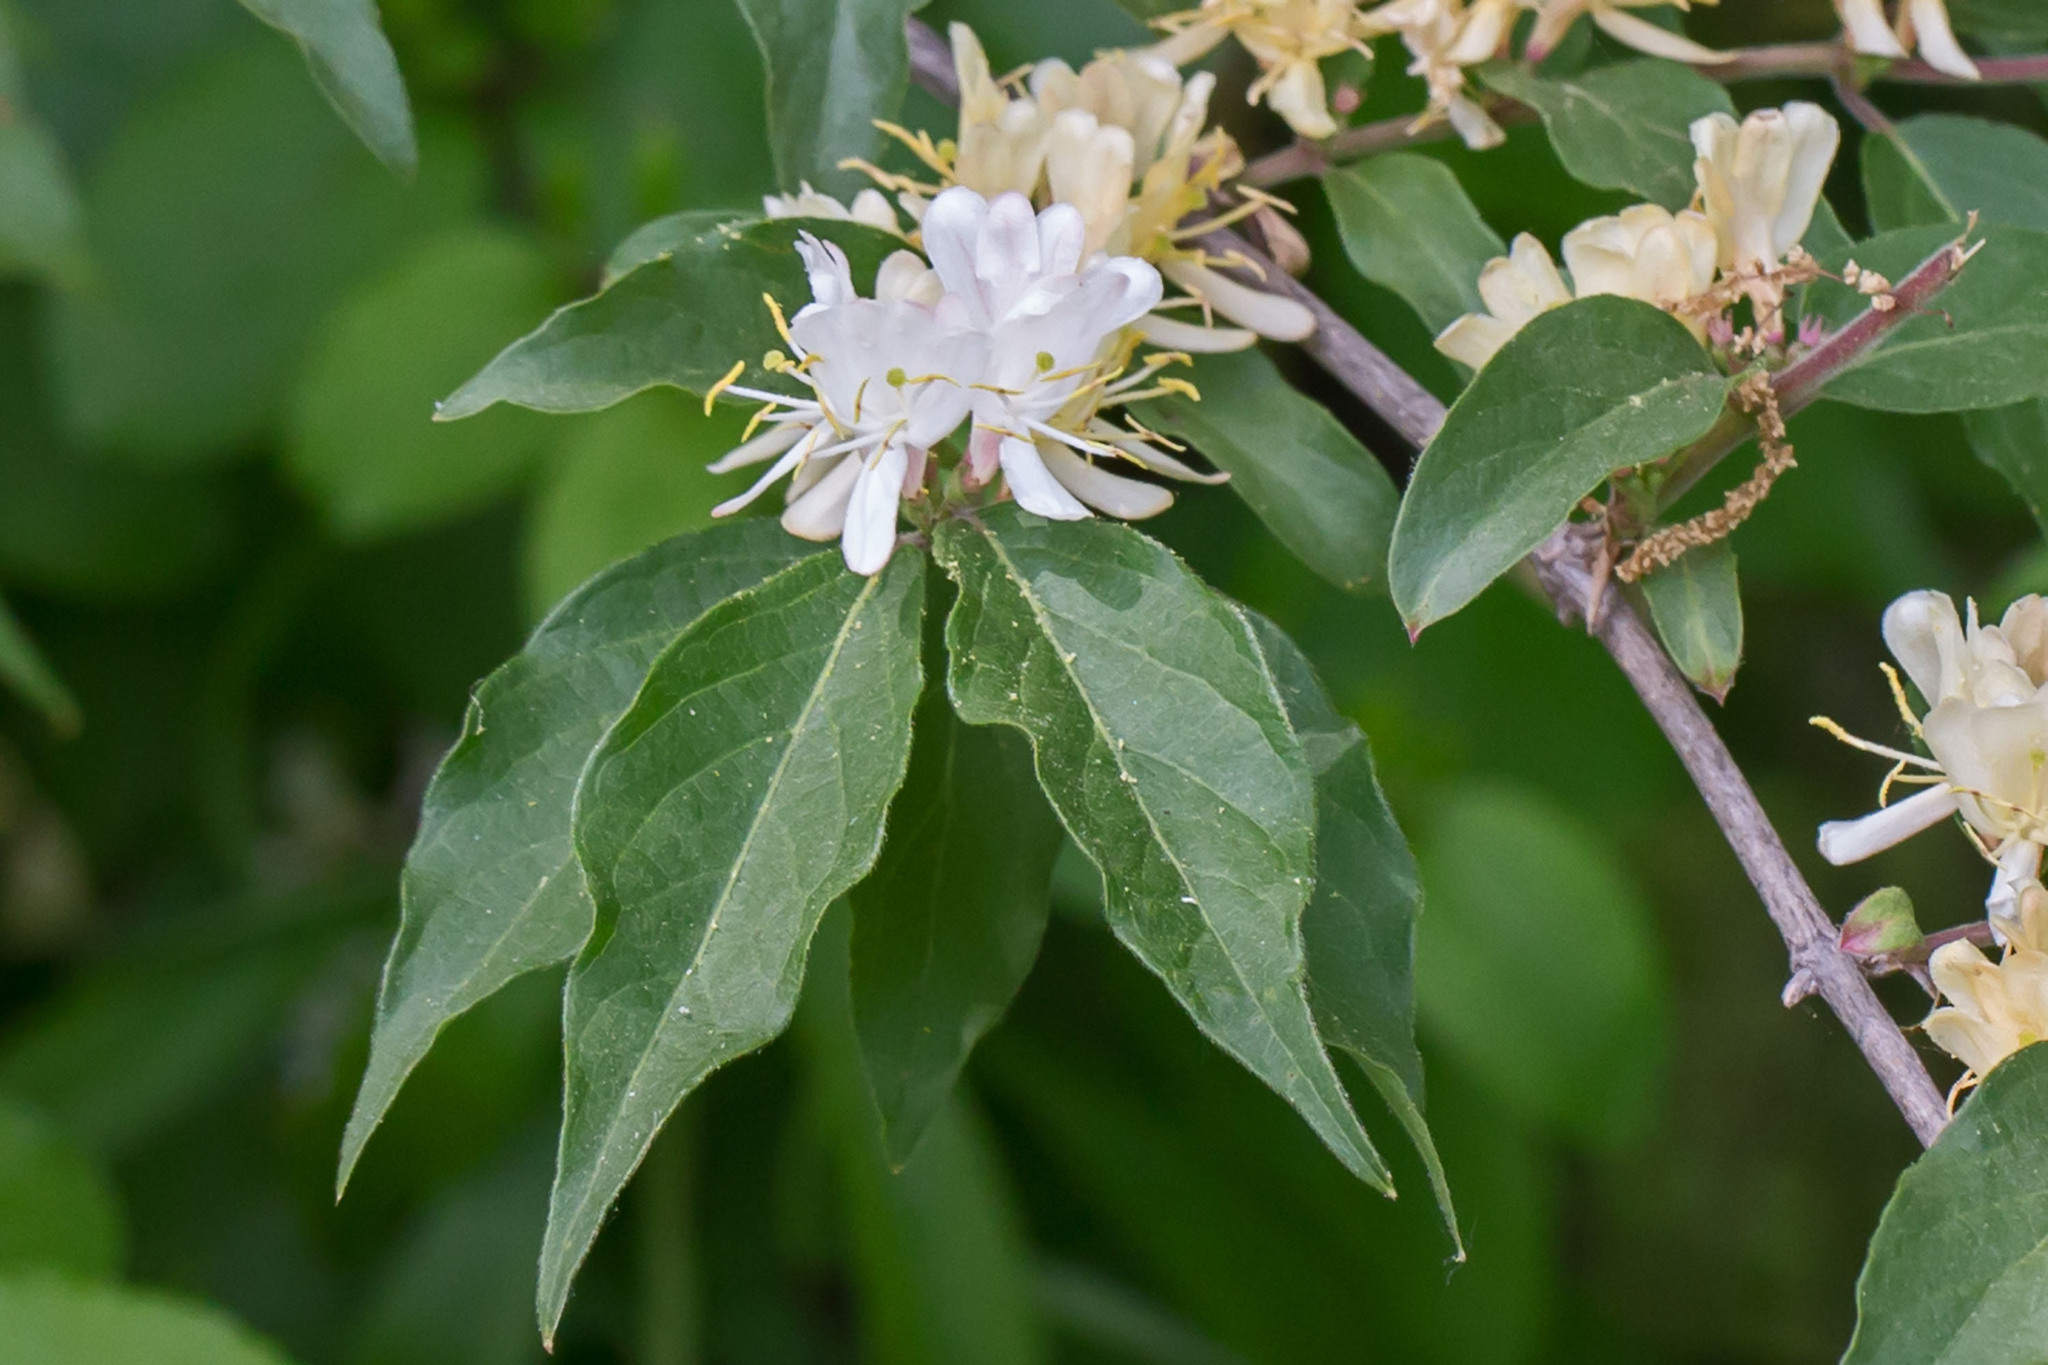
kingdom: Plantae
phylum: Tracheophyta
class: Magnoliopsida
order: Dipsacales
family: Caprifoliaceae
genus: Lonicera
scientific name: Lonicera maackii
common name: Amur honeysuckle
